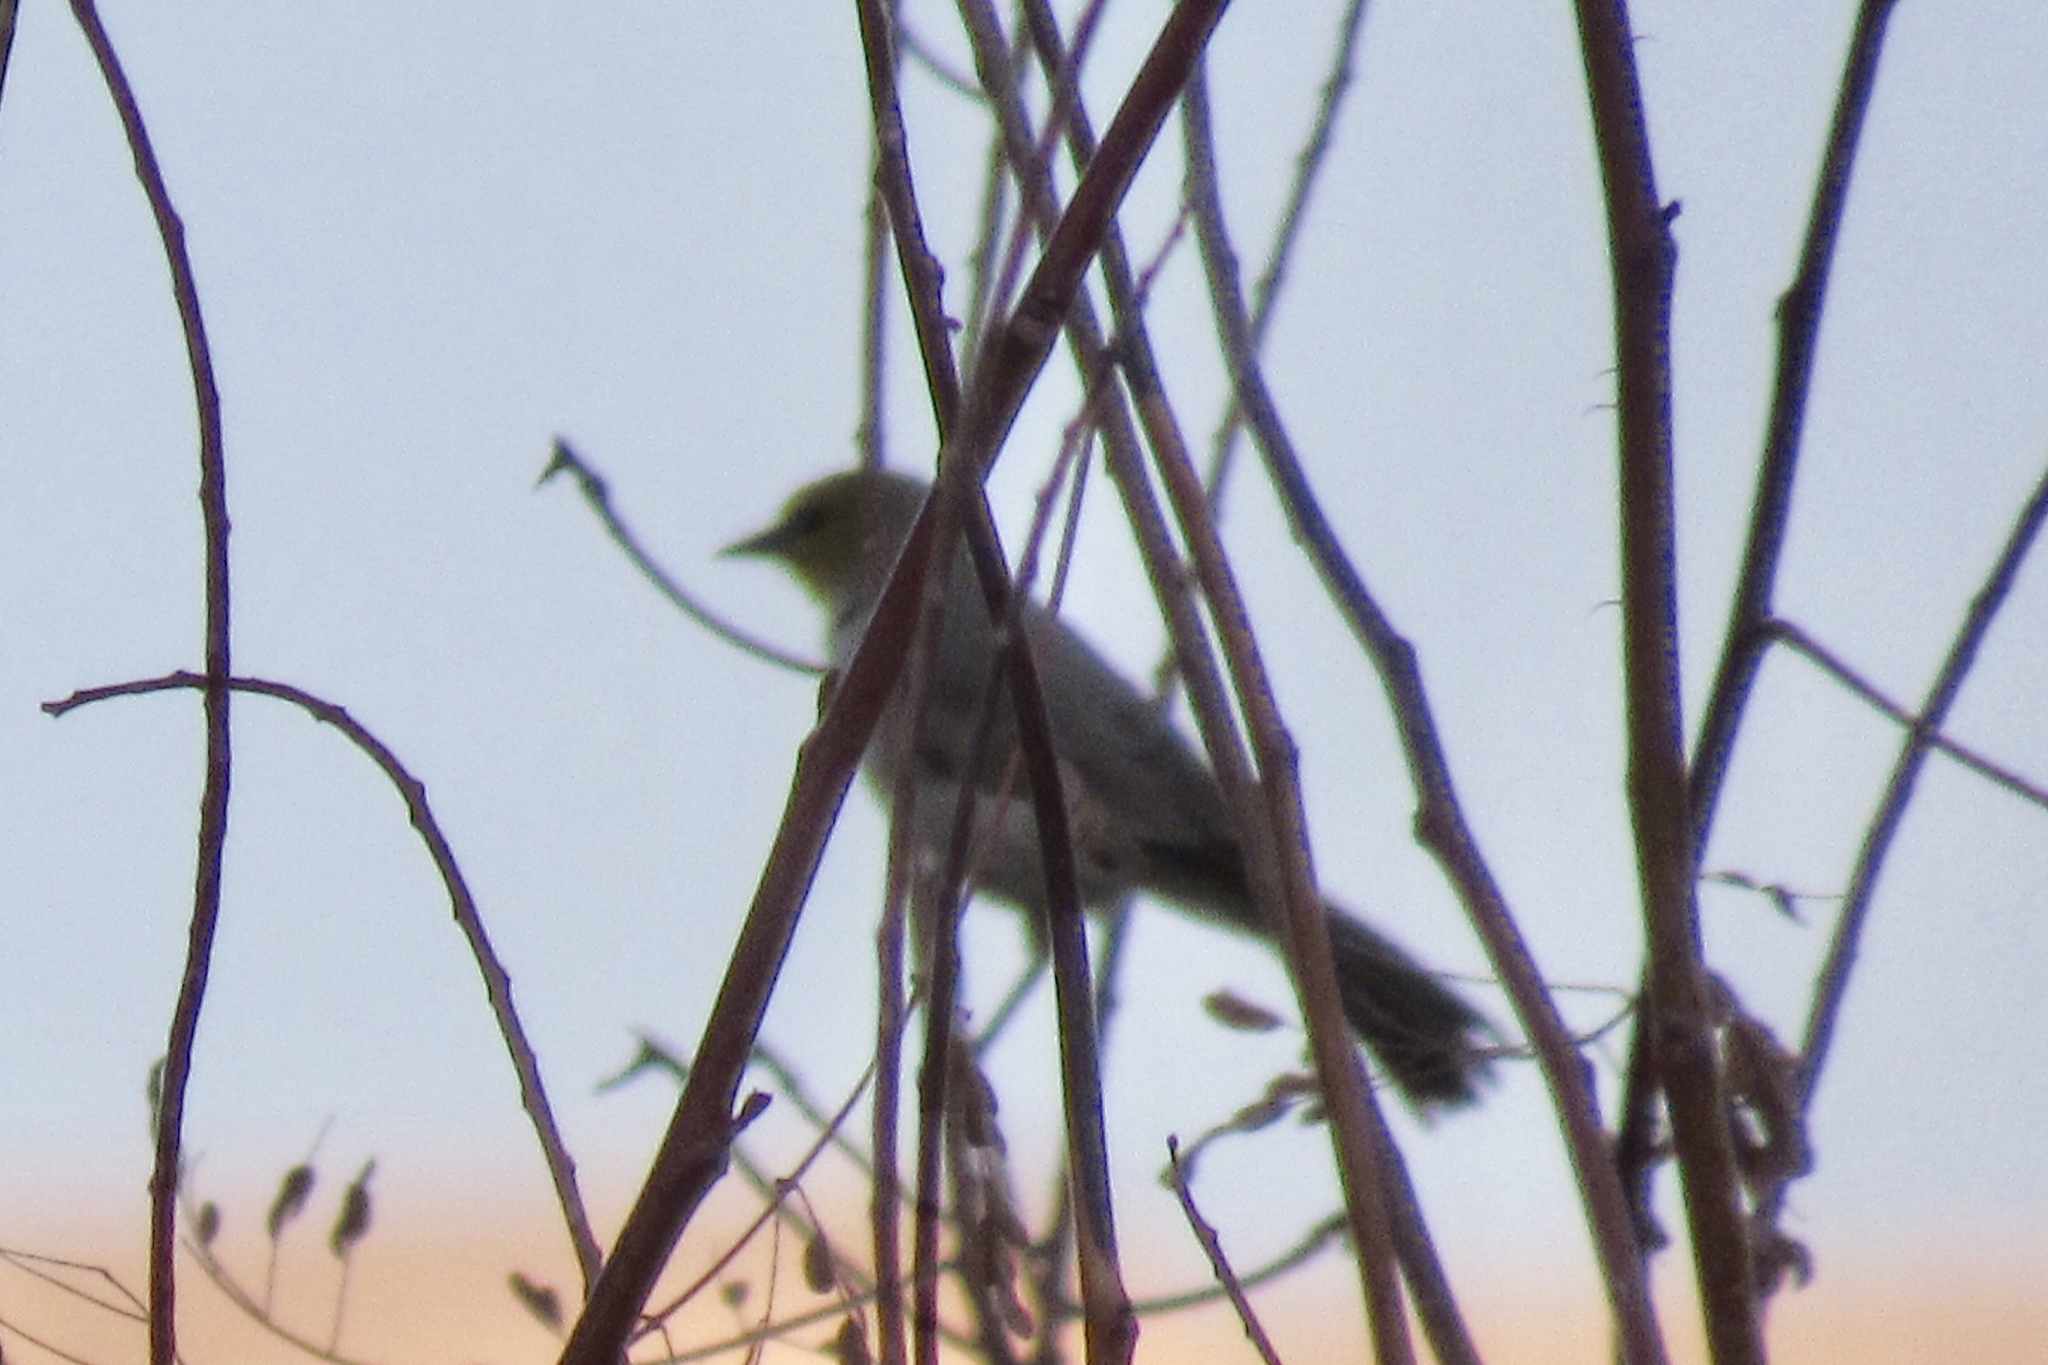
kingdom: Animalia
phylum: Chordata
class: Aves
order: Passeriformes
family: Remizidae
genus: Auriparus
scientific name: Auriparus flaviceps
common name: Verdin
